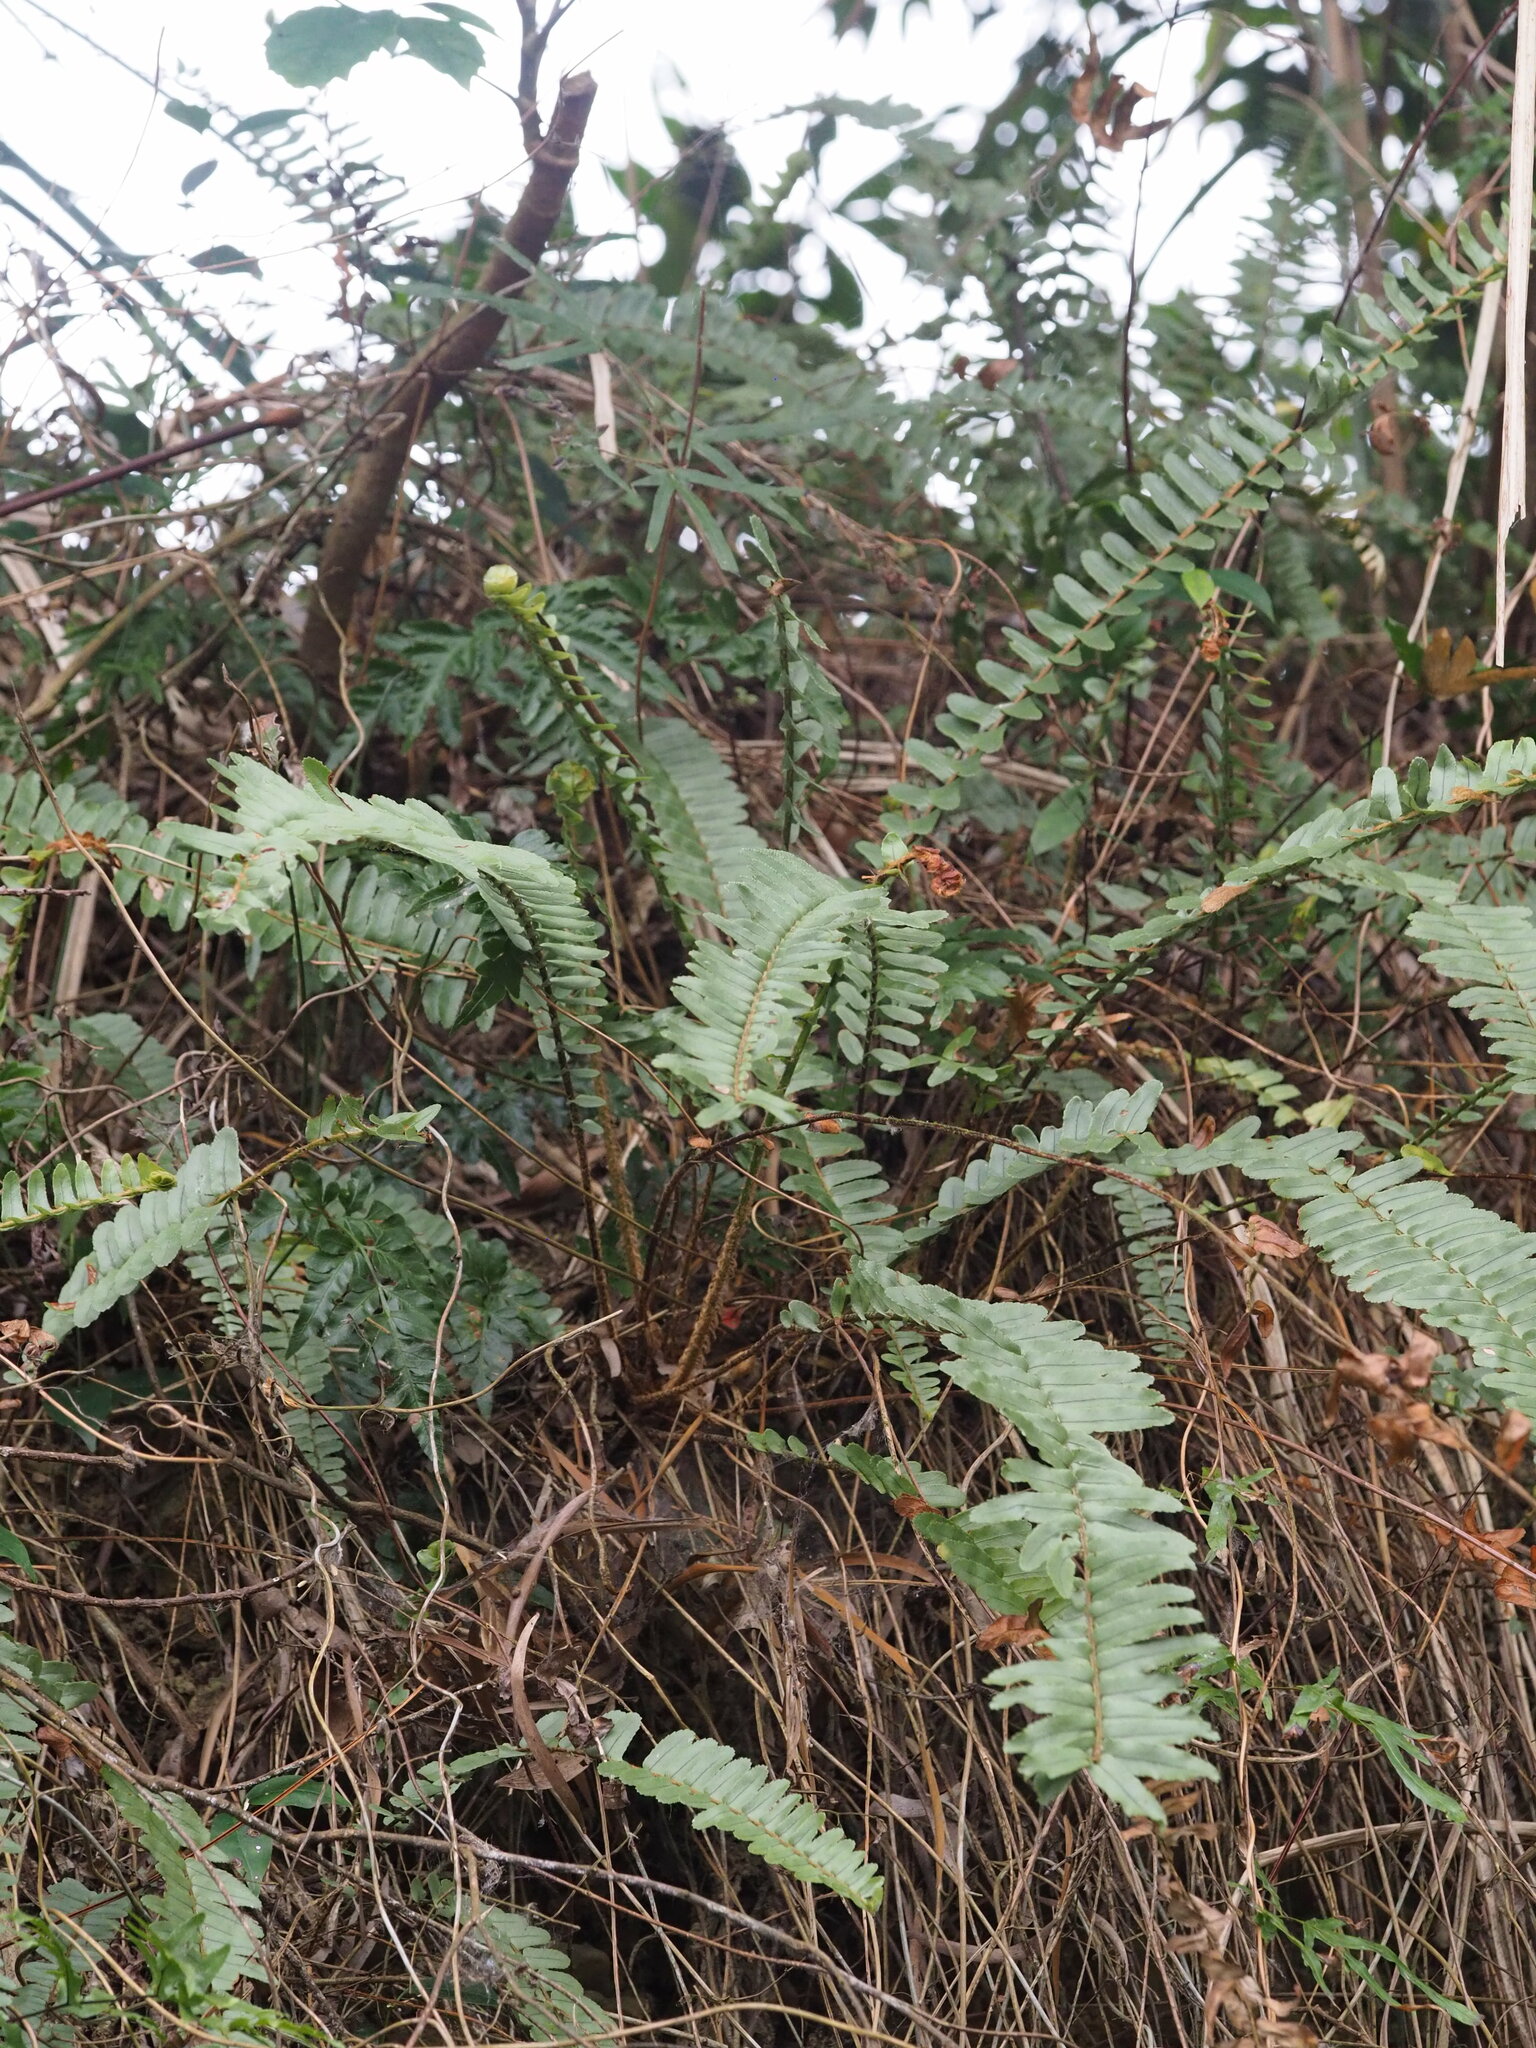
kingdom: Plantae
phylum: Tracheophyta
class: Polypodiopsida
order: Polypodiales
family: Nephrolepidaceae
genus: Nephrolepis
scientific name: Nephrolepis cordifolia
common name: Narrow swordfern
